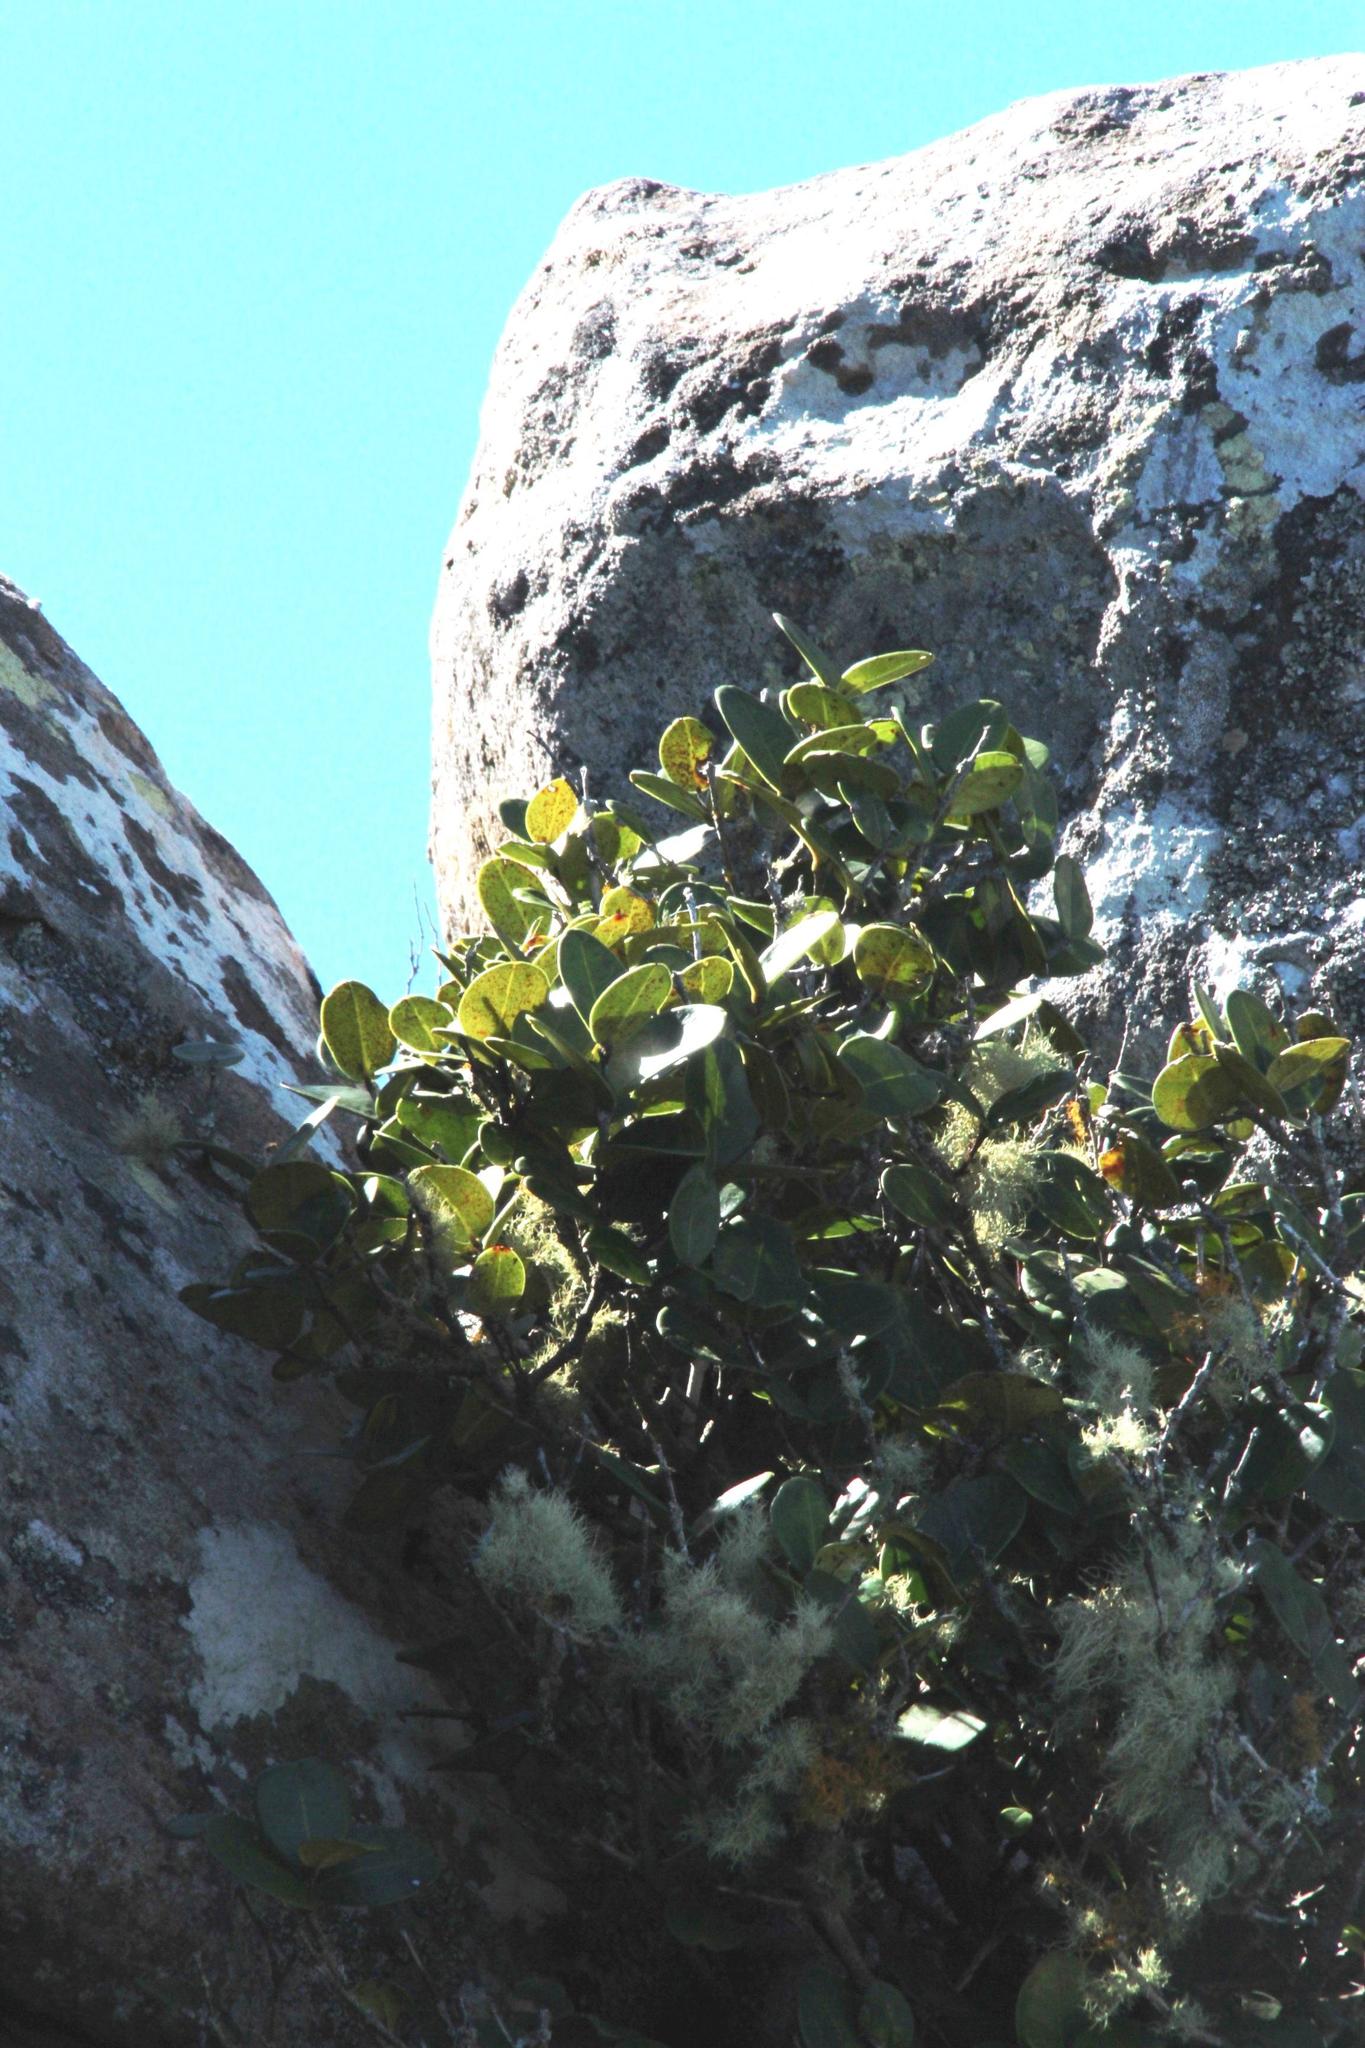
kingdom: Plantae
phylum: Tracheophyta
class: Magnoliopsida
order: Celastrales
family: Celastraceae
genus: Maurocenia
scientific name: Maurocenia frangula
